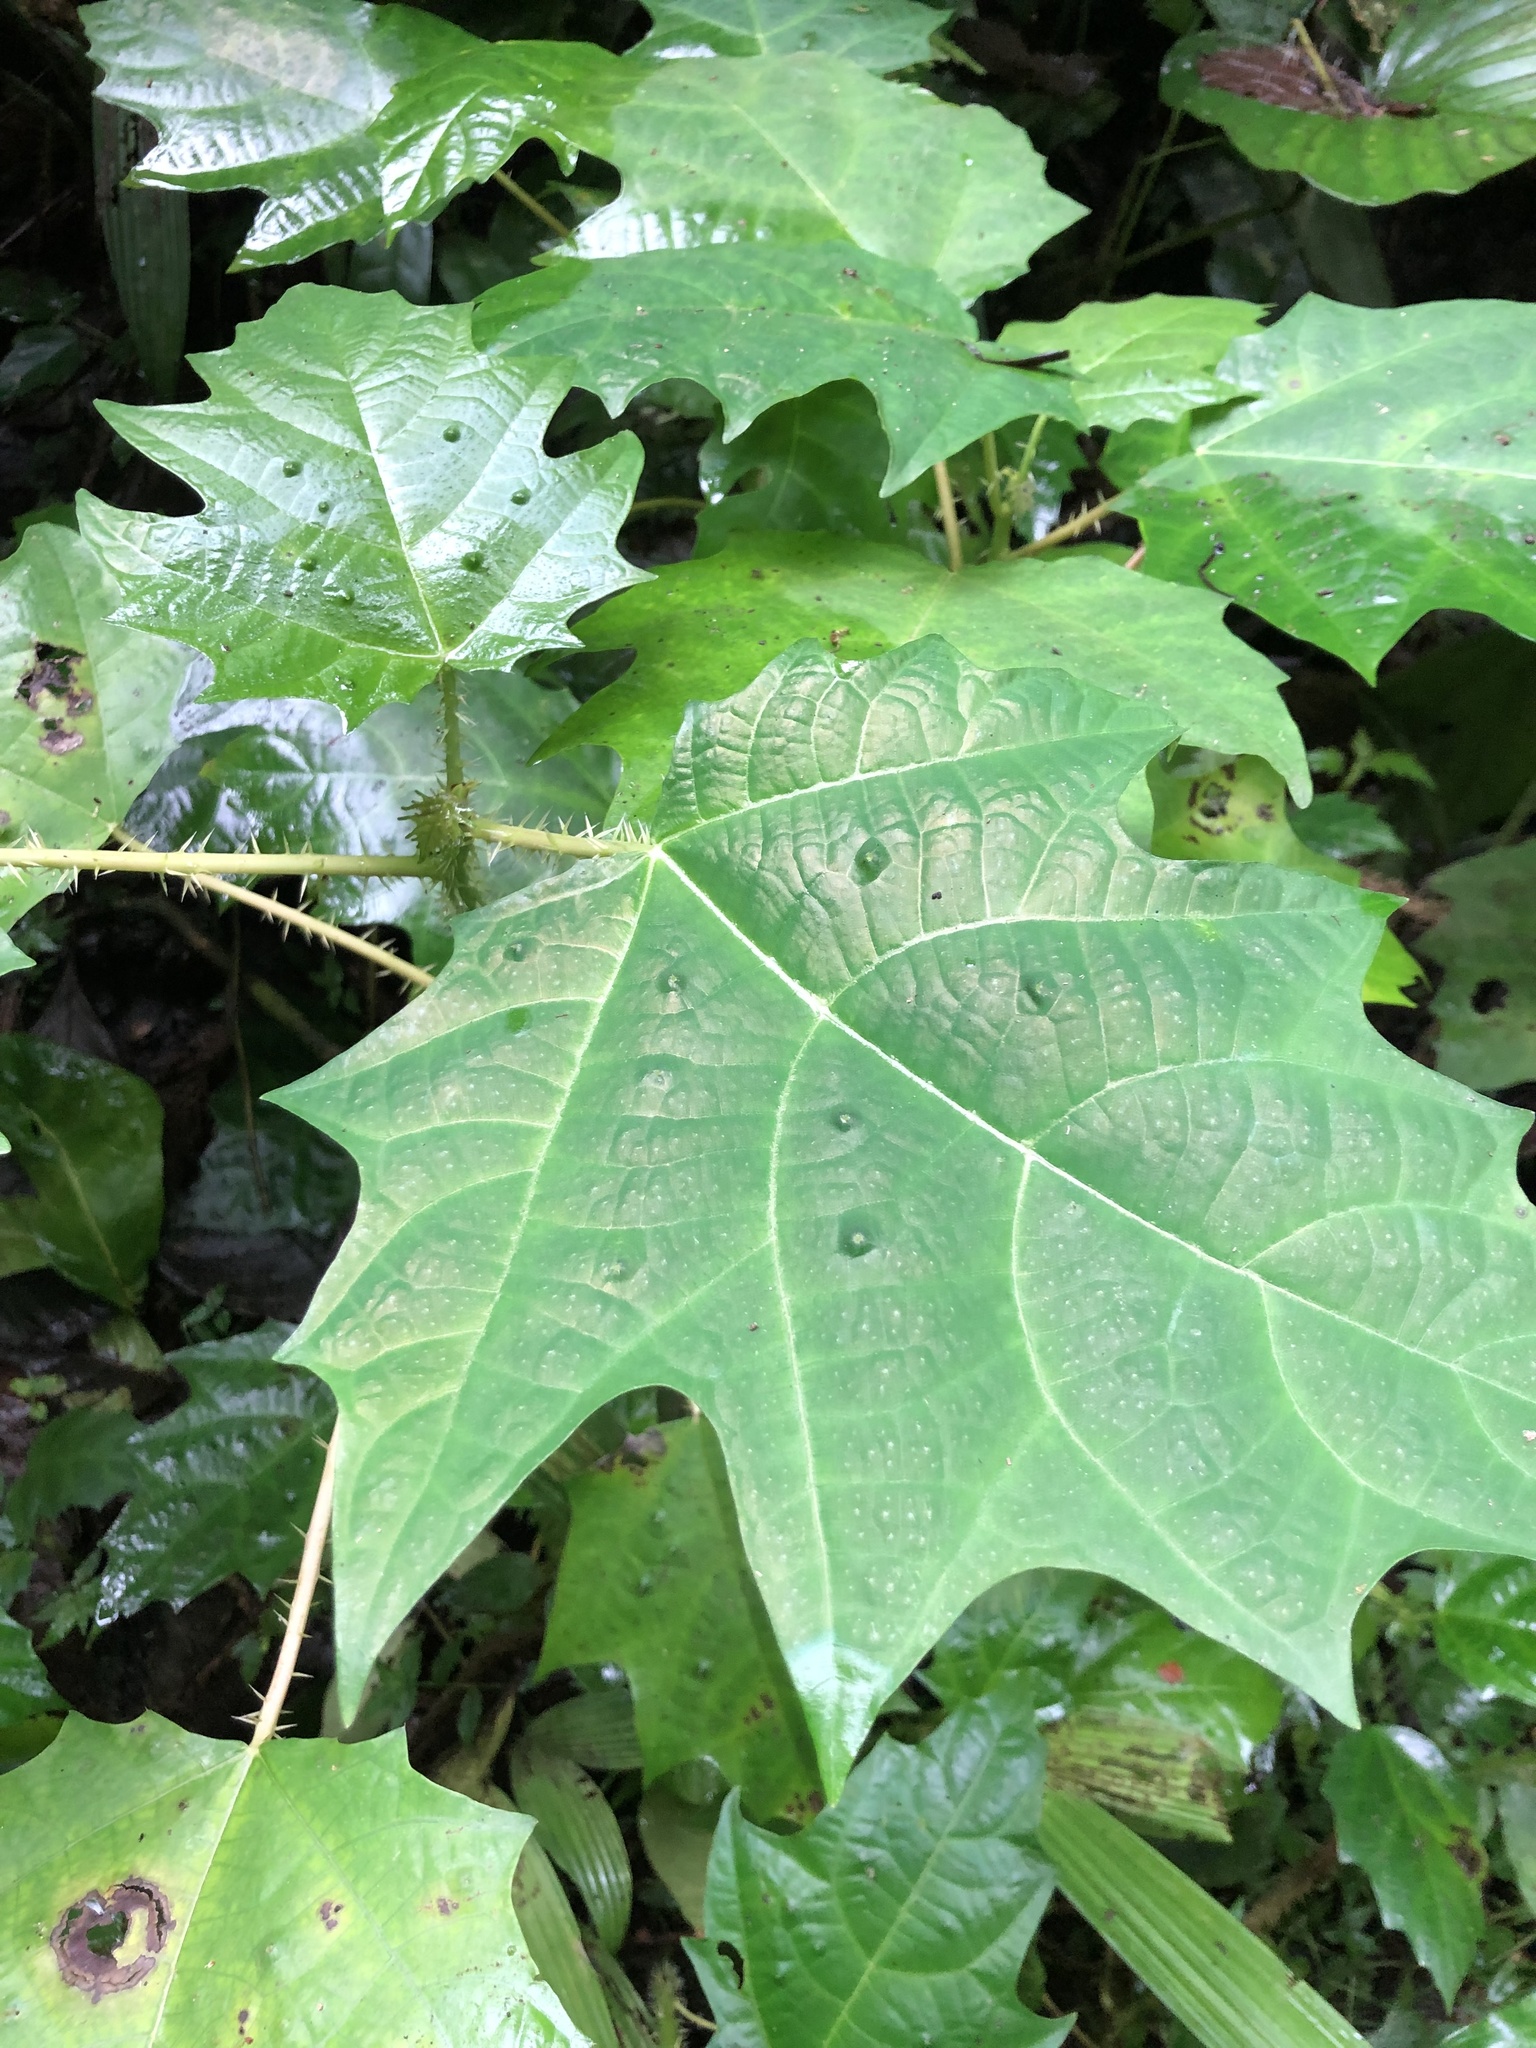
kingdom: Plantae
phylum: Tracheophyta
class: Magnoliopsida
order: Rosales
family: Urticaceae
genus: Urera
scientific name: Urera laciniata
